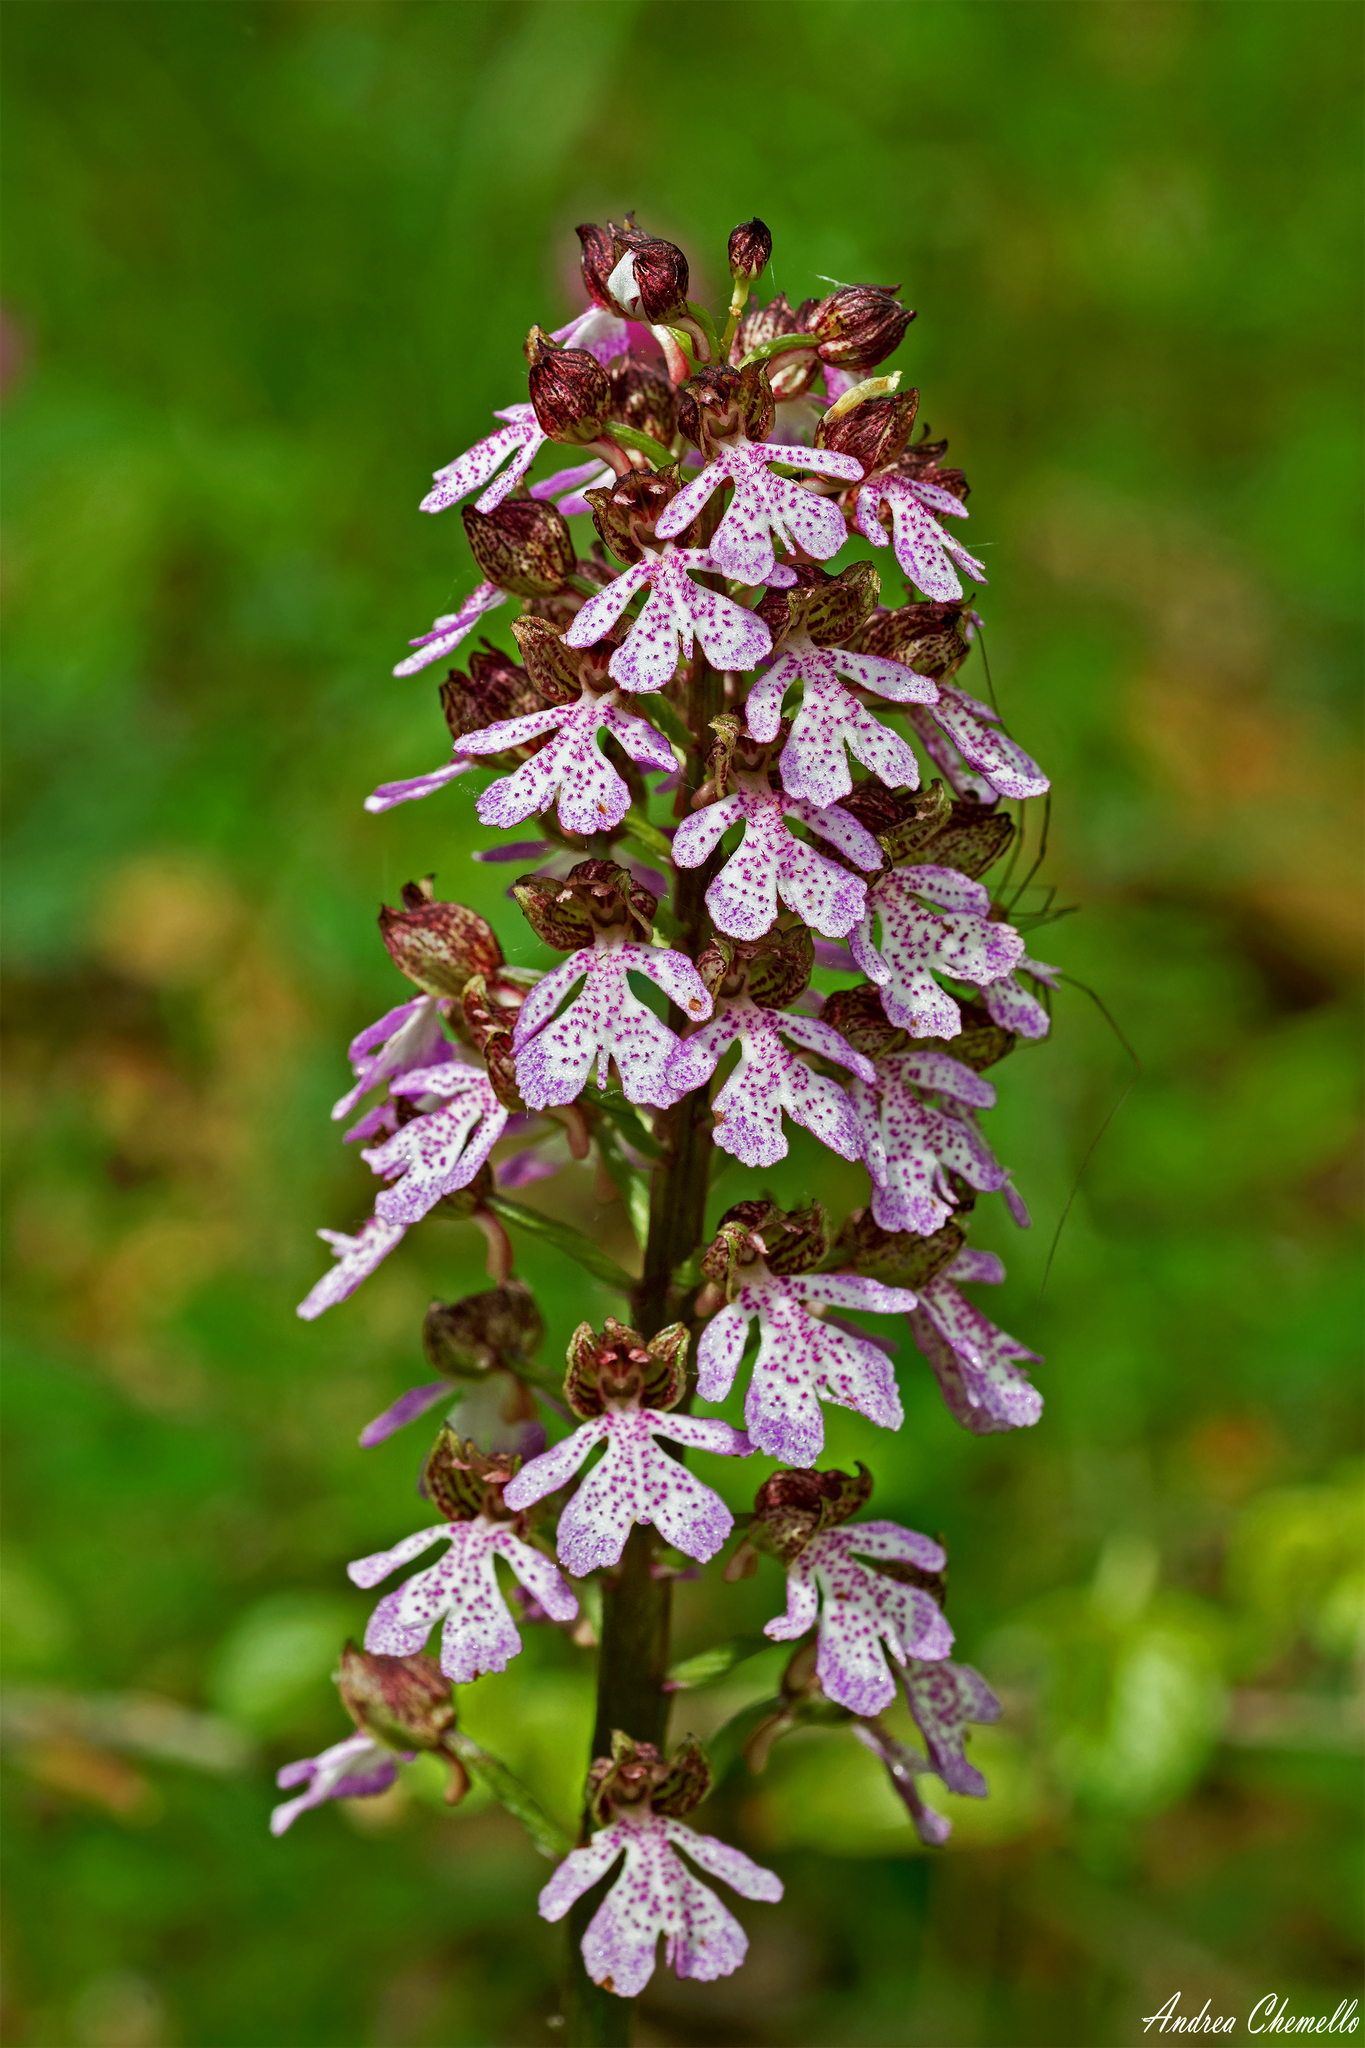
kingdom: Plantae
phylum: Tracheophyta
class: Liliopsida
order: Asparagales
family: Orchidaceae
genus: Orchis
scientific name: Orchis purpurea
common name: Lady orchid
